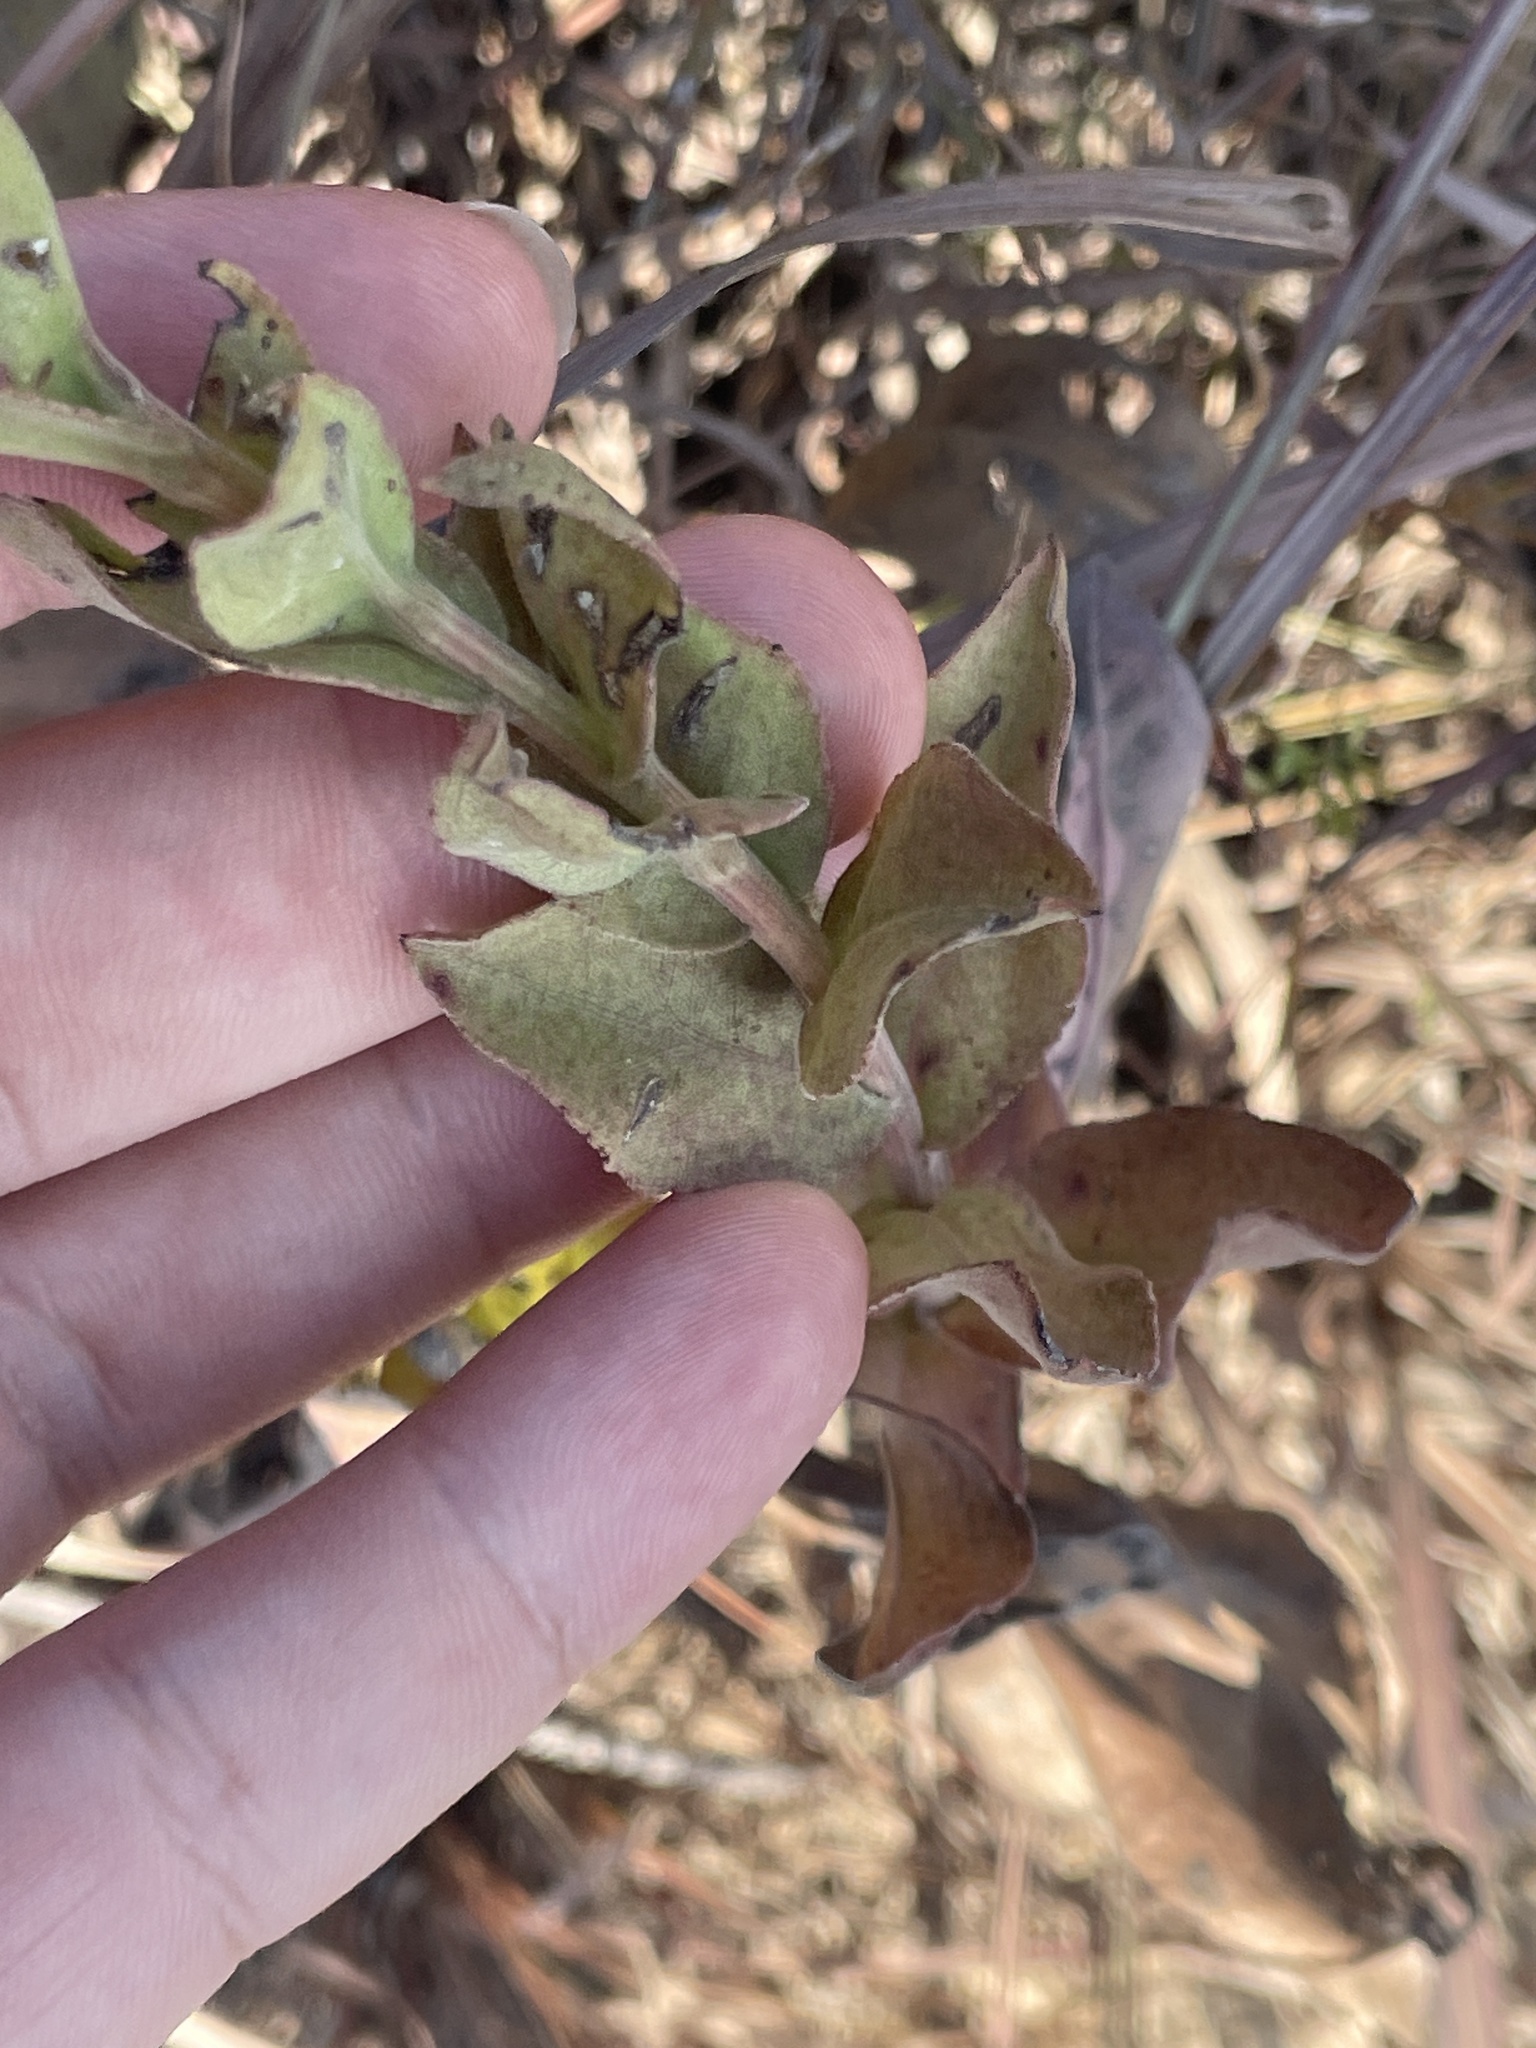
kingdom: Plantae
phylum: Tracheophyta
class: Magnoliopsida
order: Asterales
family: Asteraceae
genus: Solidago
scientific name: Solidago rigida
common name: Rigid goldenrod
